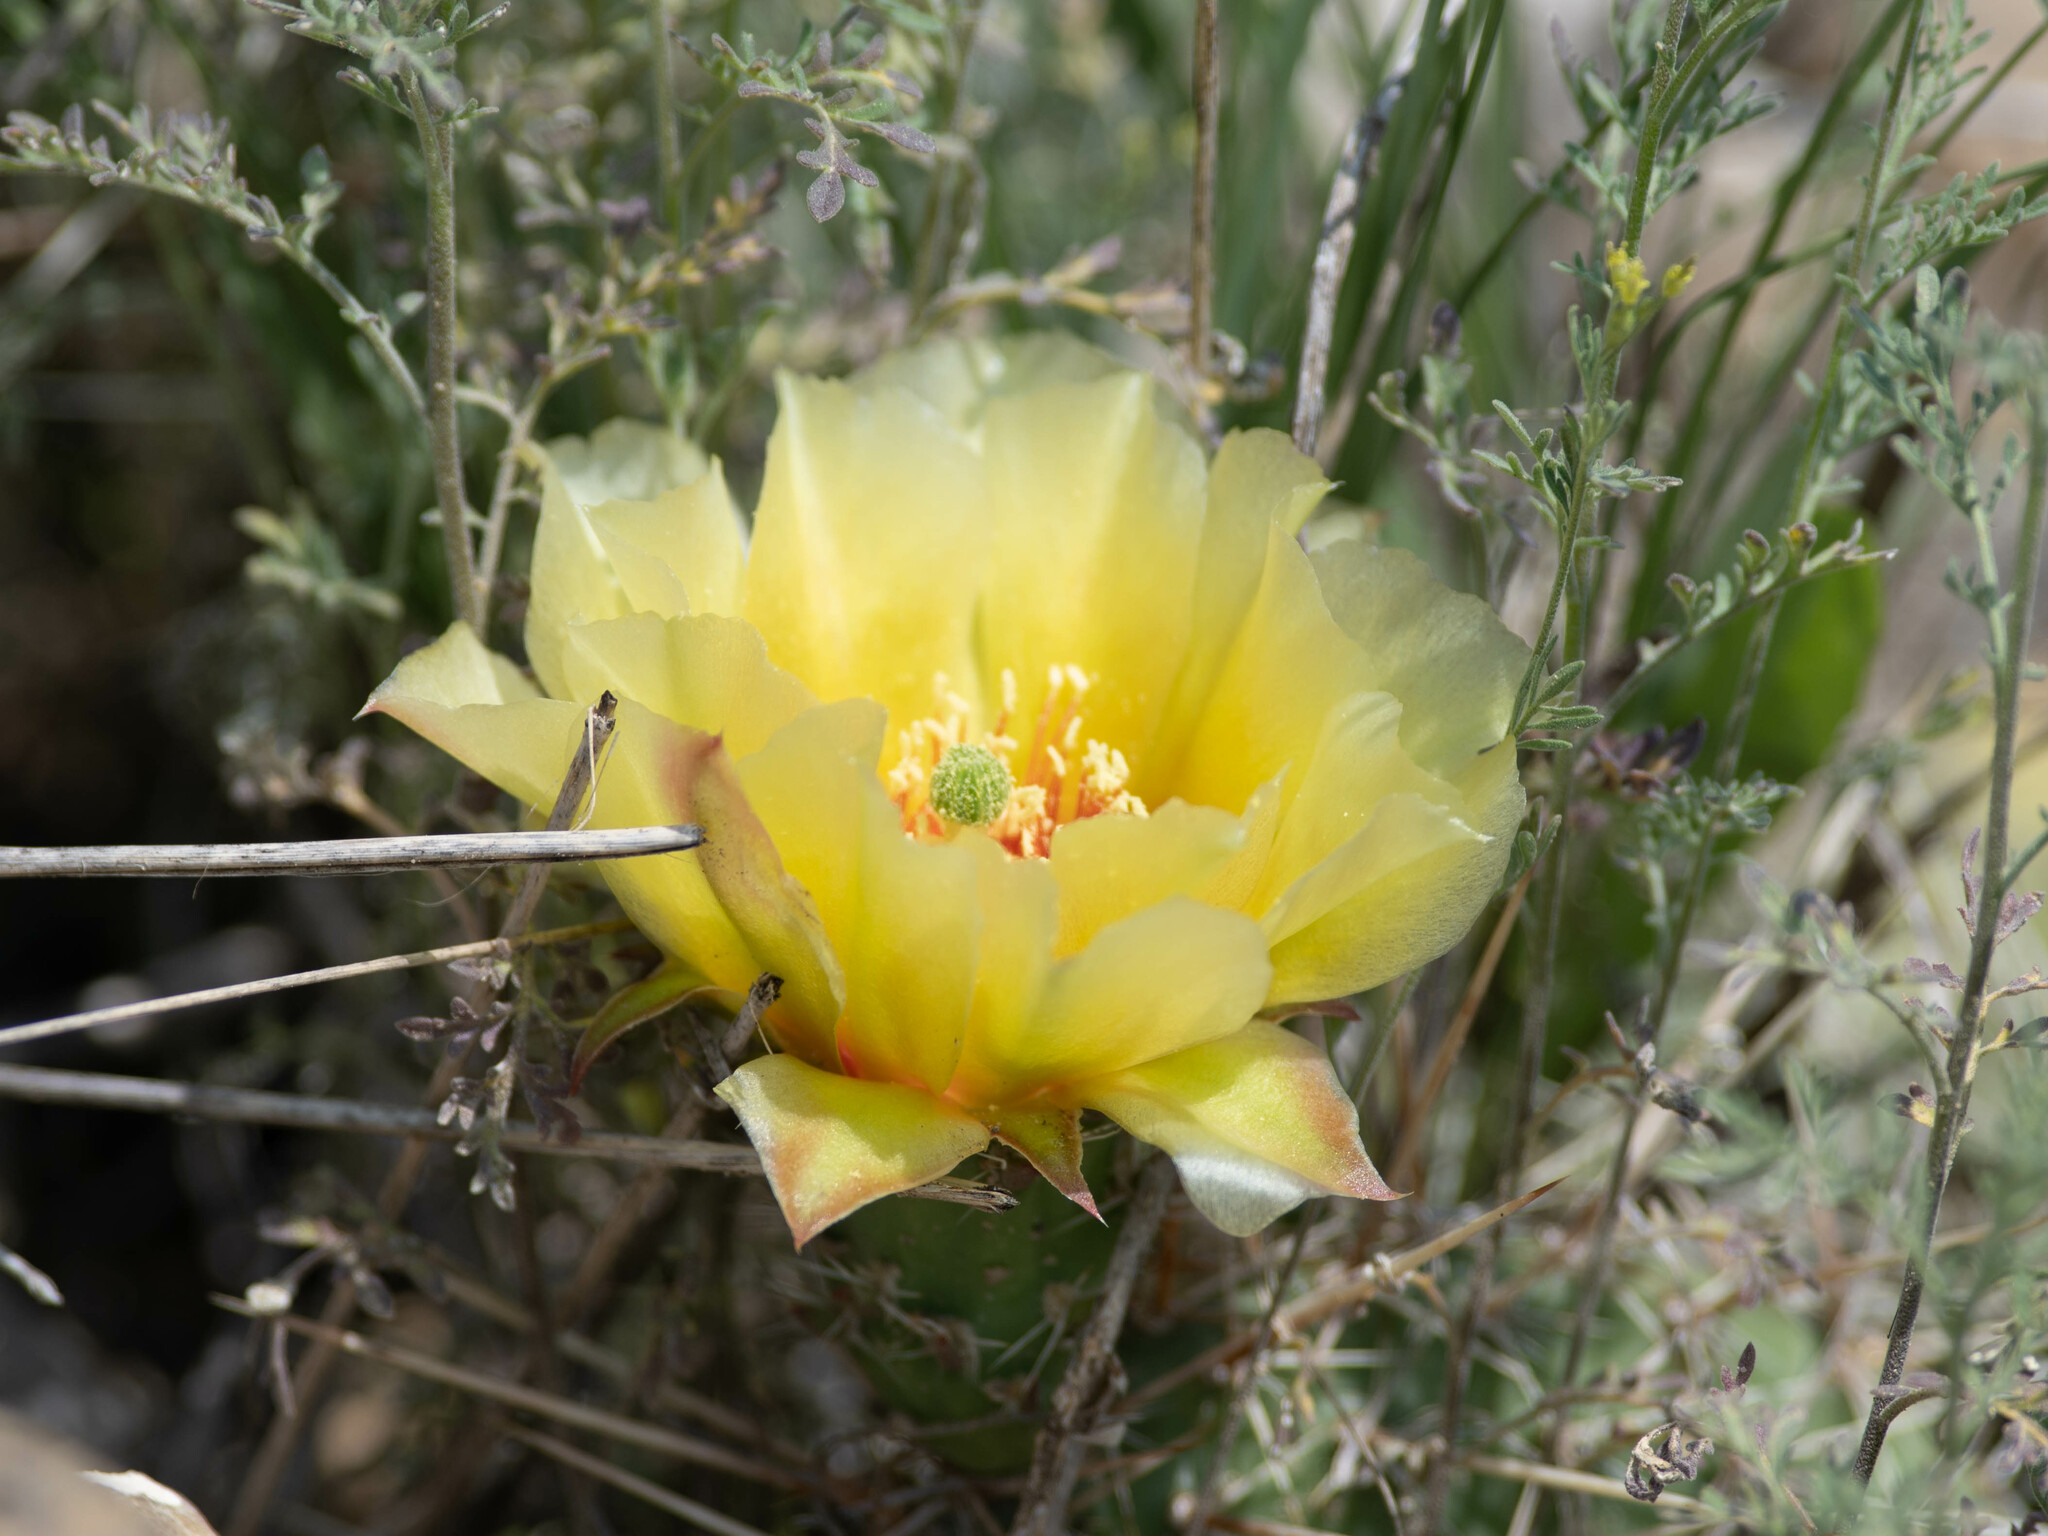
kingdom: Plantae
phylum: Tracheophyta
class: Magnoliopsida
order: Caryophyllales
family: Cactaceae
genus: Opuntia
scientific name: Opuntia polyacantha
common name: Plains prickly-pear
